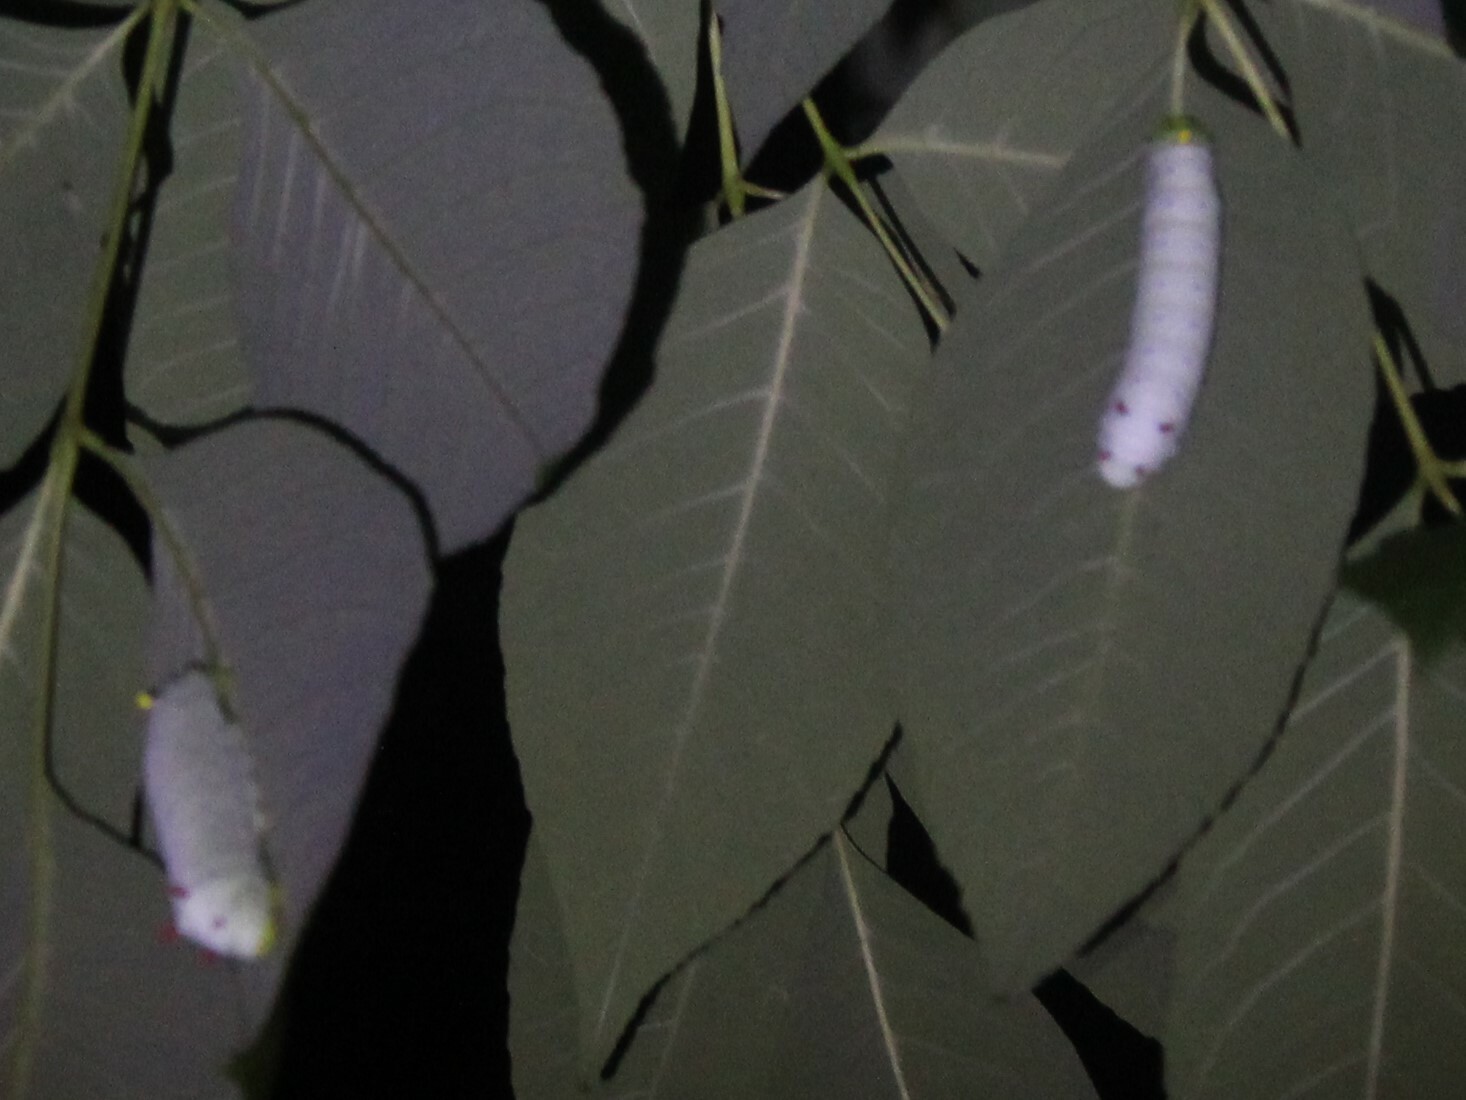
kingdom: Animalia
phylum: Arthropoda
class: Insecta
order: Lepidoptera
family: Saturniidae
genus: Callosamia
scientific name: Callosamia promethea
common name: Promethea silkmoth
